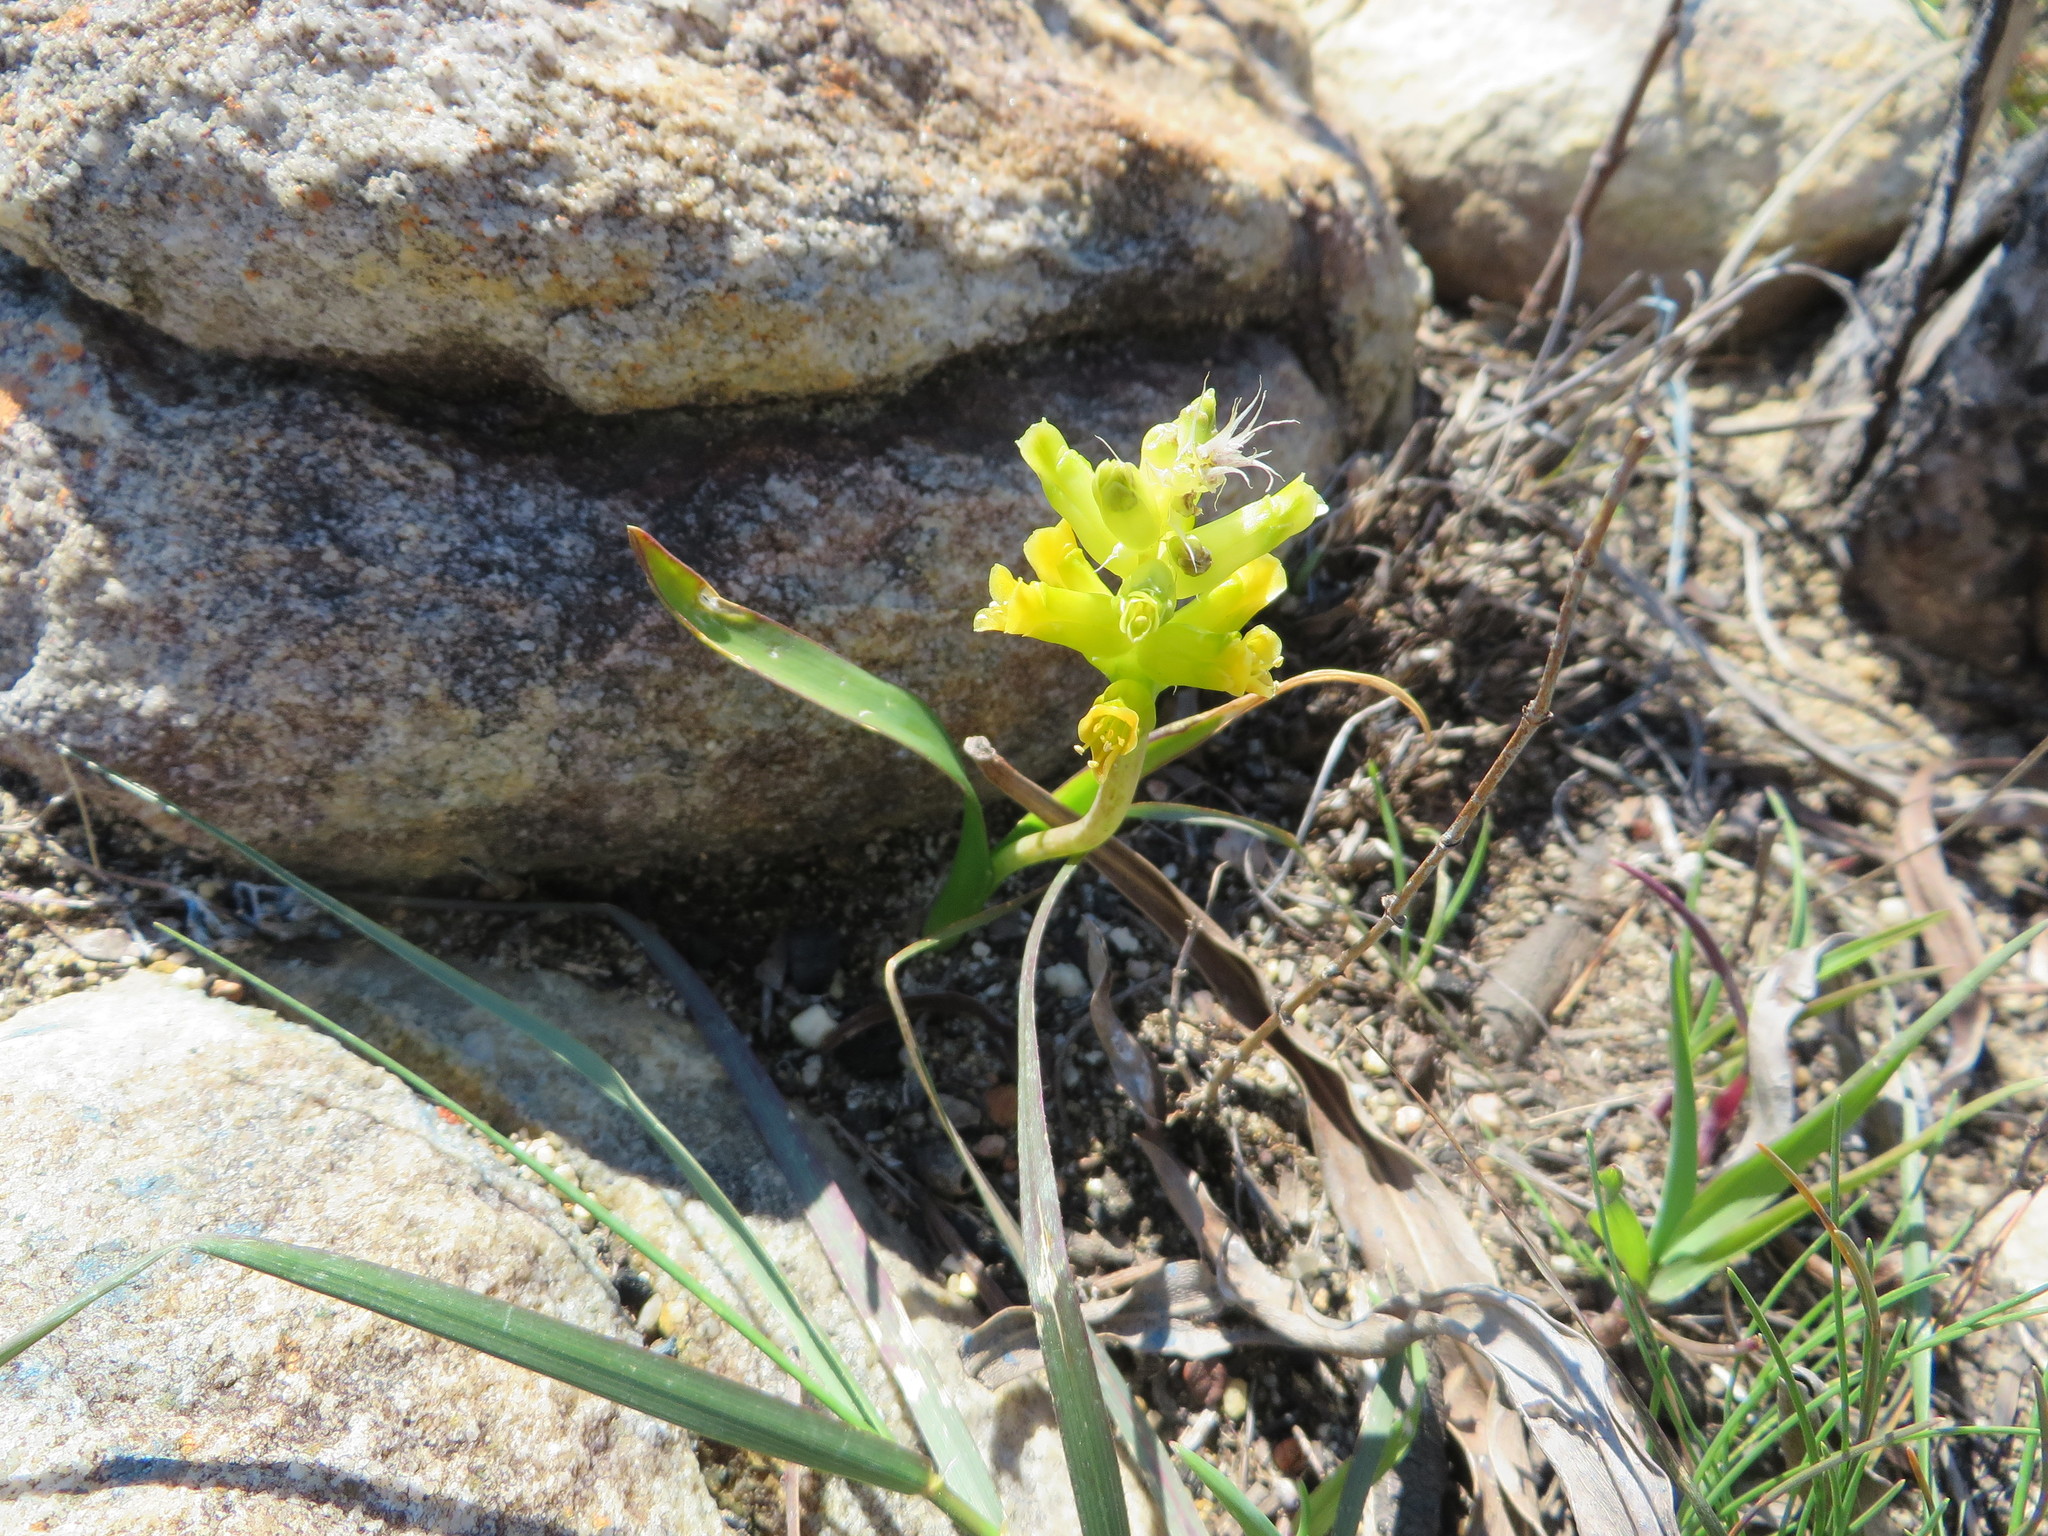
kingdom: Plantae
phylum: Tracheophyta
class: Liliopsida
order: Asparagales
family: Asparagaceae
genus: Lachenalia
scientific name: Lachenalia lutea
